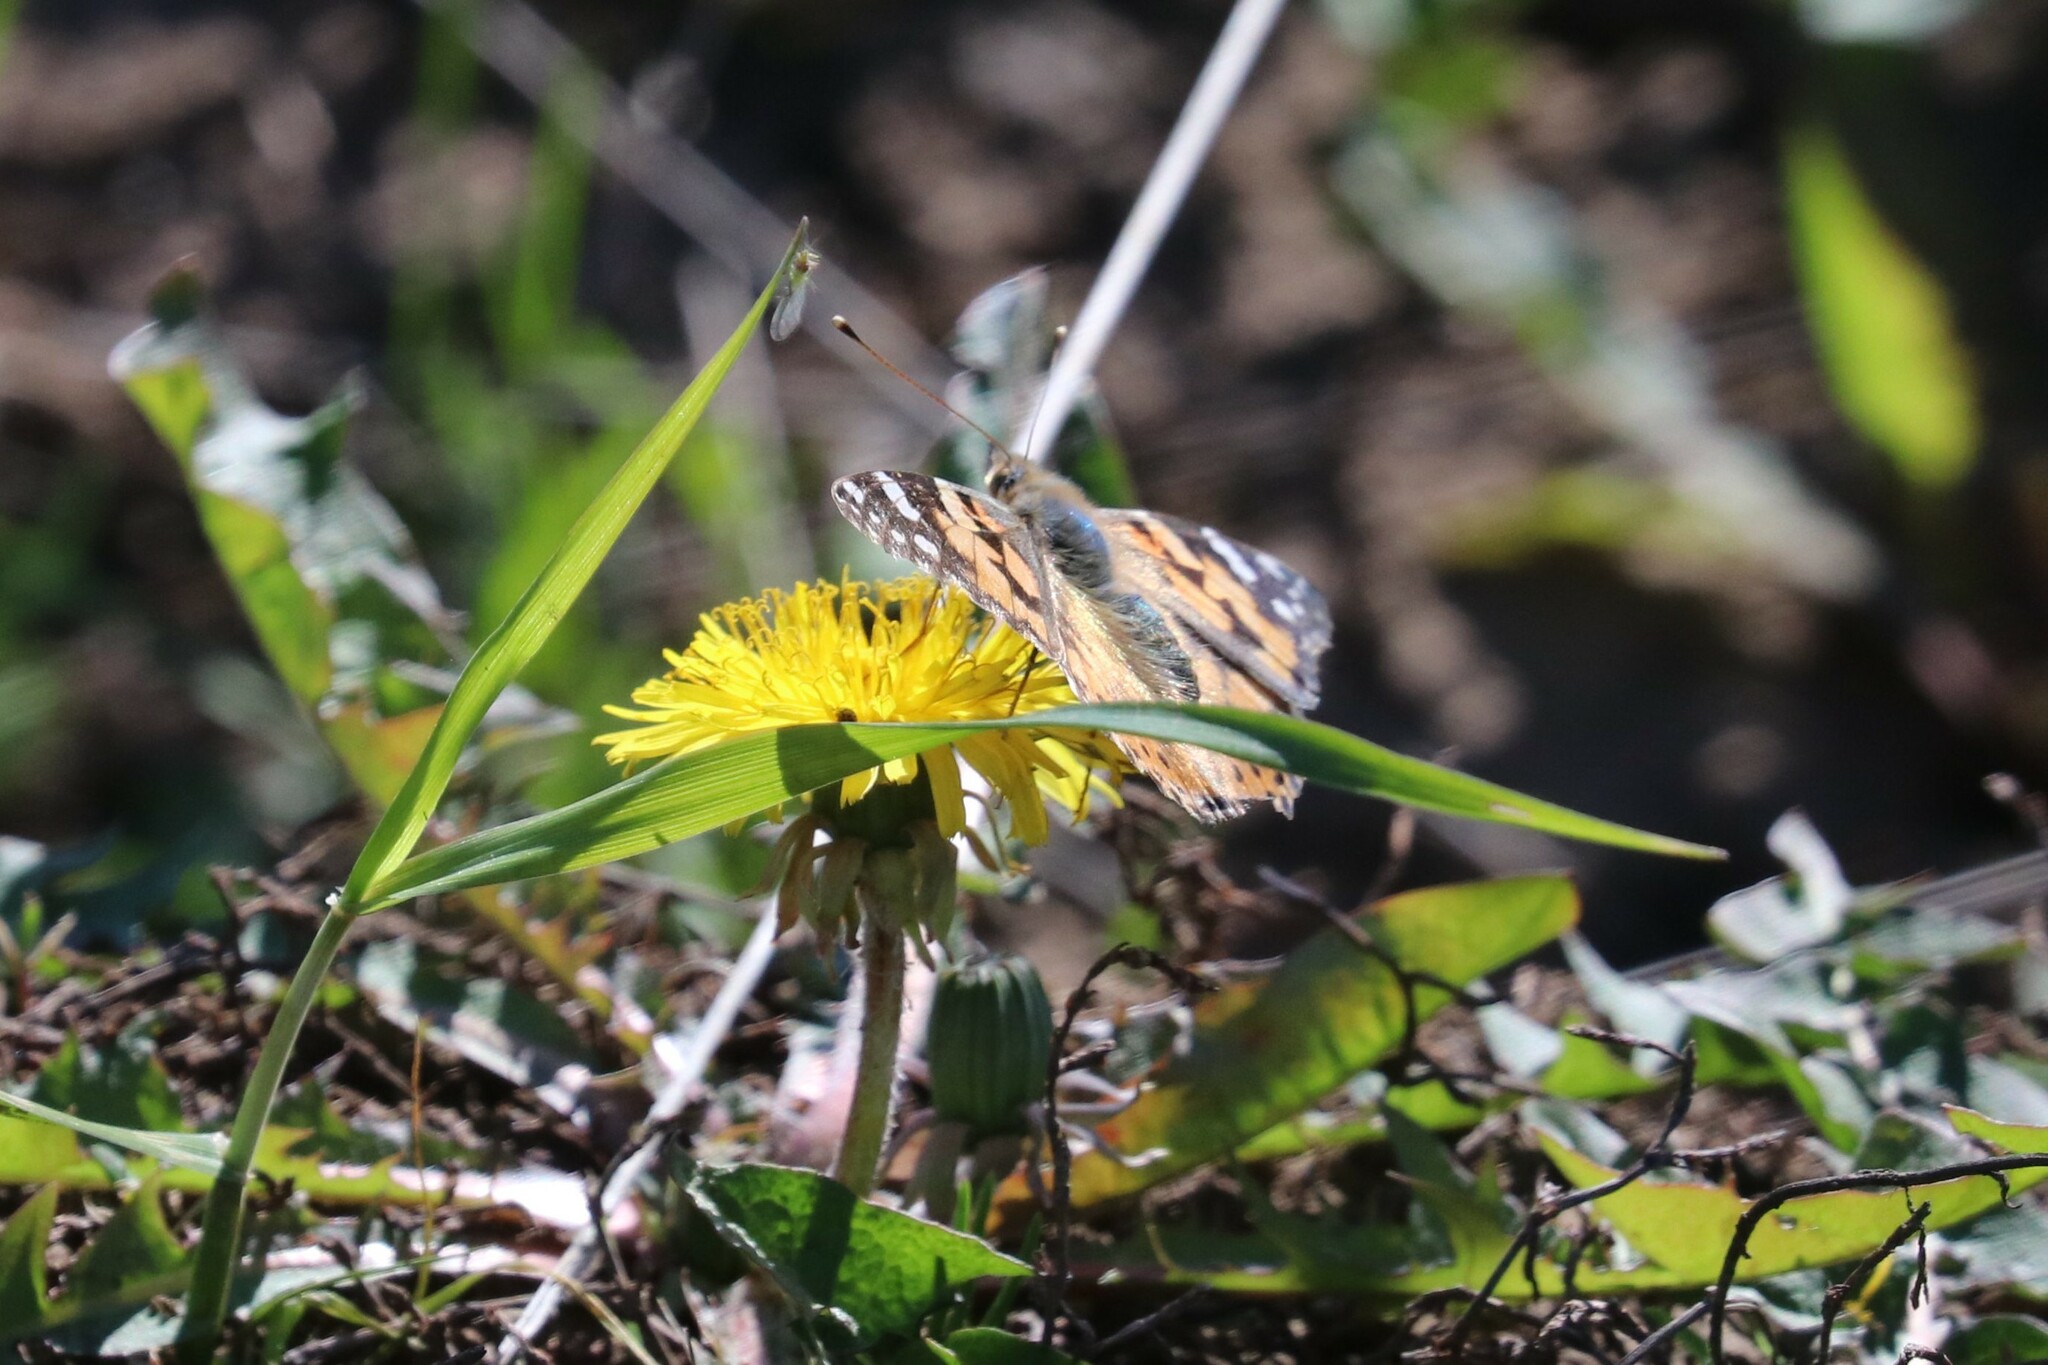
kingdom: Animalia
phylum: Arthropoda
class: Insecta
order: Lepidoptera
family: Nymphalidae
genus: Vanessa
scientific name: Vanessa cardui
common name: Painted lady
